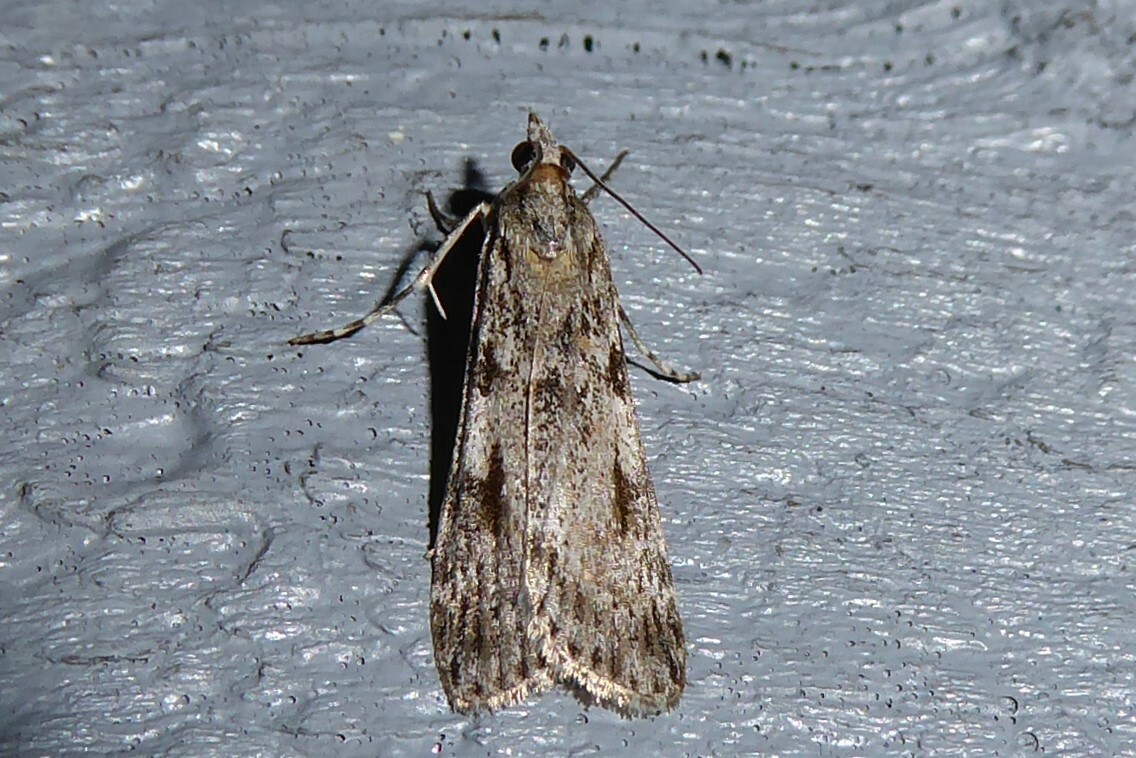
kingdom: Animalia
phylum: Arthropoda
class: Insecta
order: Lepidoptera
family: Crambidae
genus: Scoparia
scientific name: Scoparia halopis
